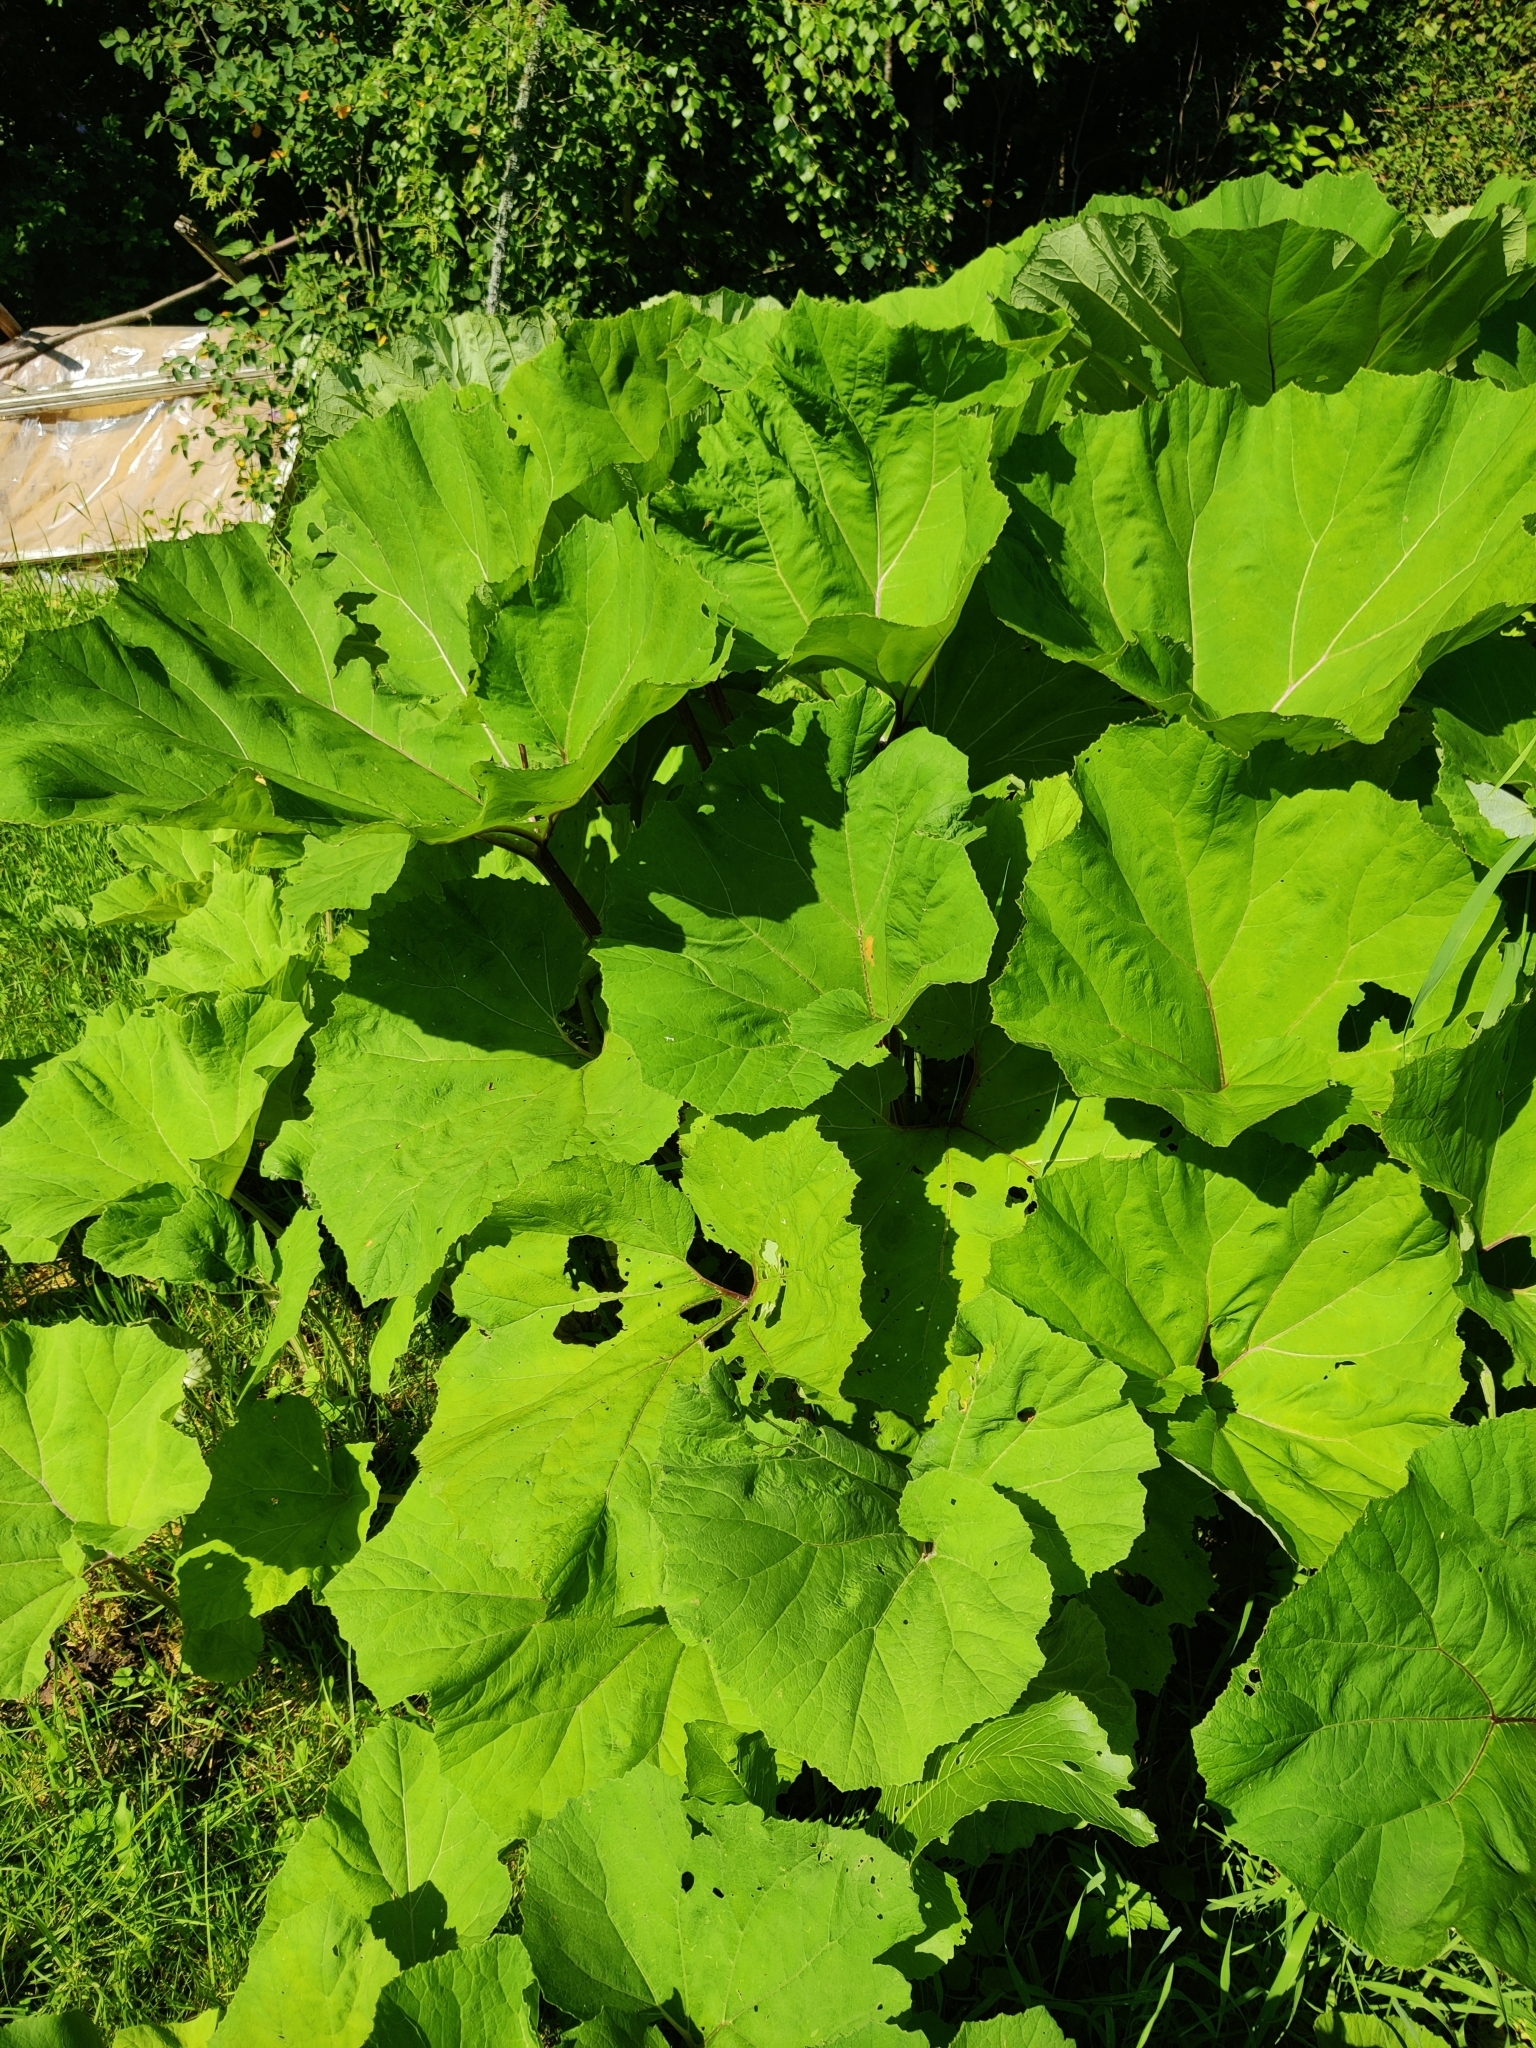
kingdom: Plantae
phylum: Tracheophyta
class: Magnoliopsida
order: Asterales
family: Asteraceae
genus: Petasites
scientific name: Petasites hybridus
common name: Butterbur
